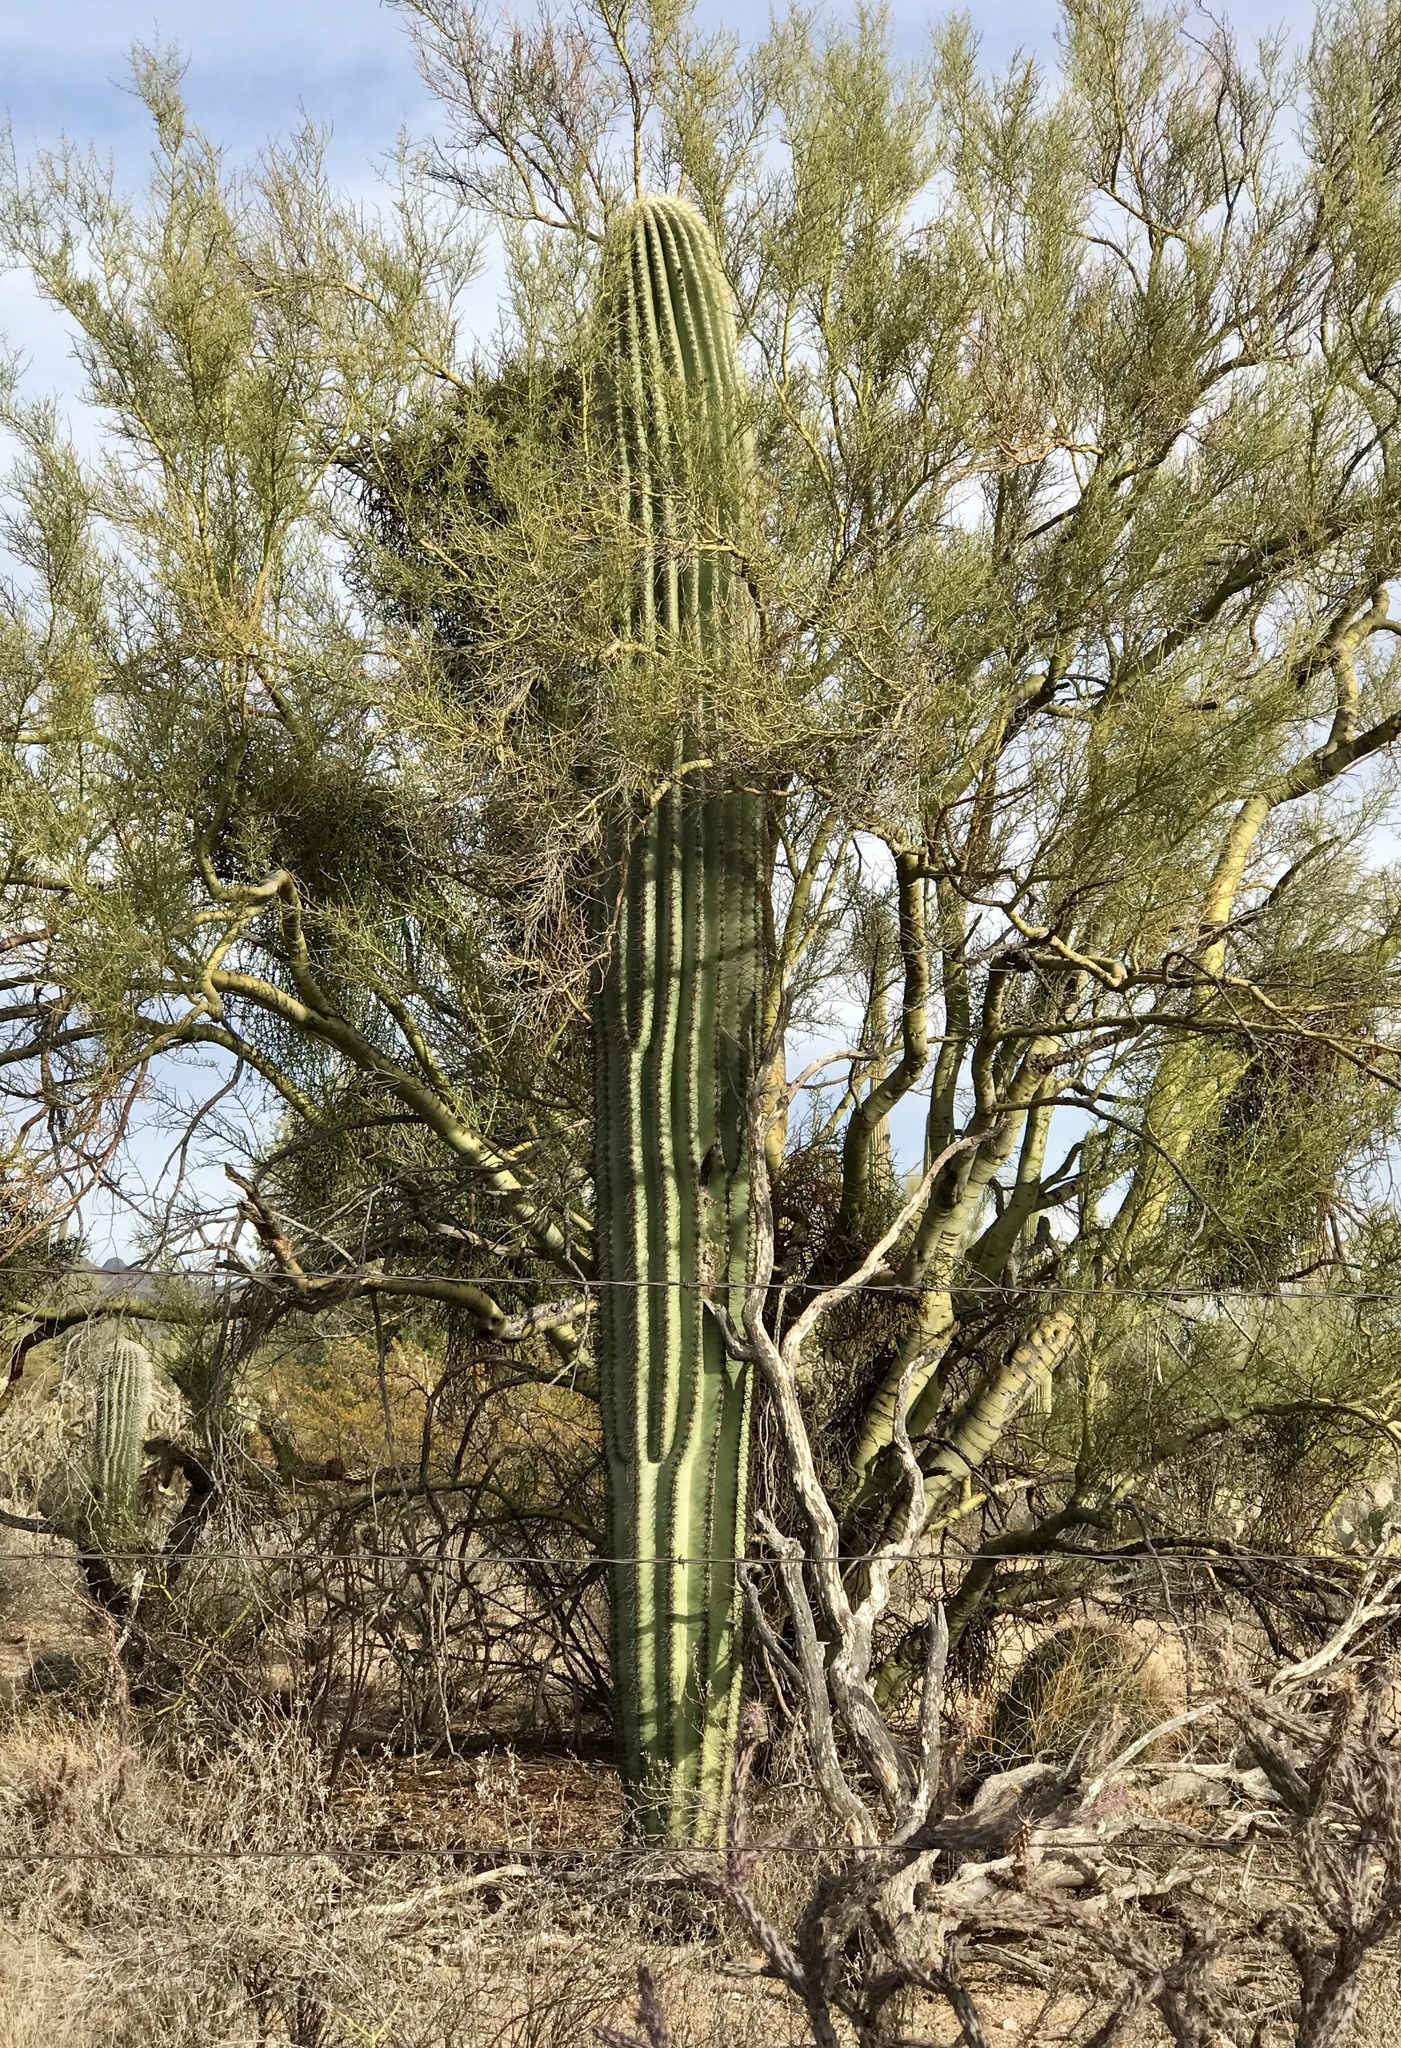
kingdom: Plantae
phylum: Tracheophyta
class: Magnoliopsida
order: Caryophyllales
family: Cactaceae
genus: Carnegiea
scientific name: Carnegiea gigantea
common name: Saguaro
